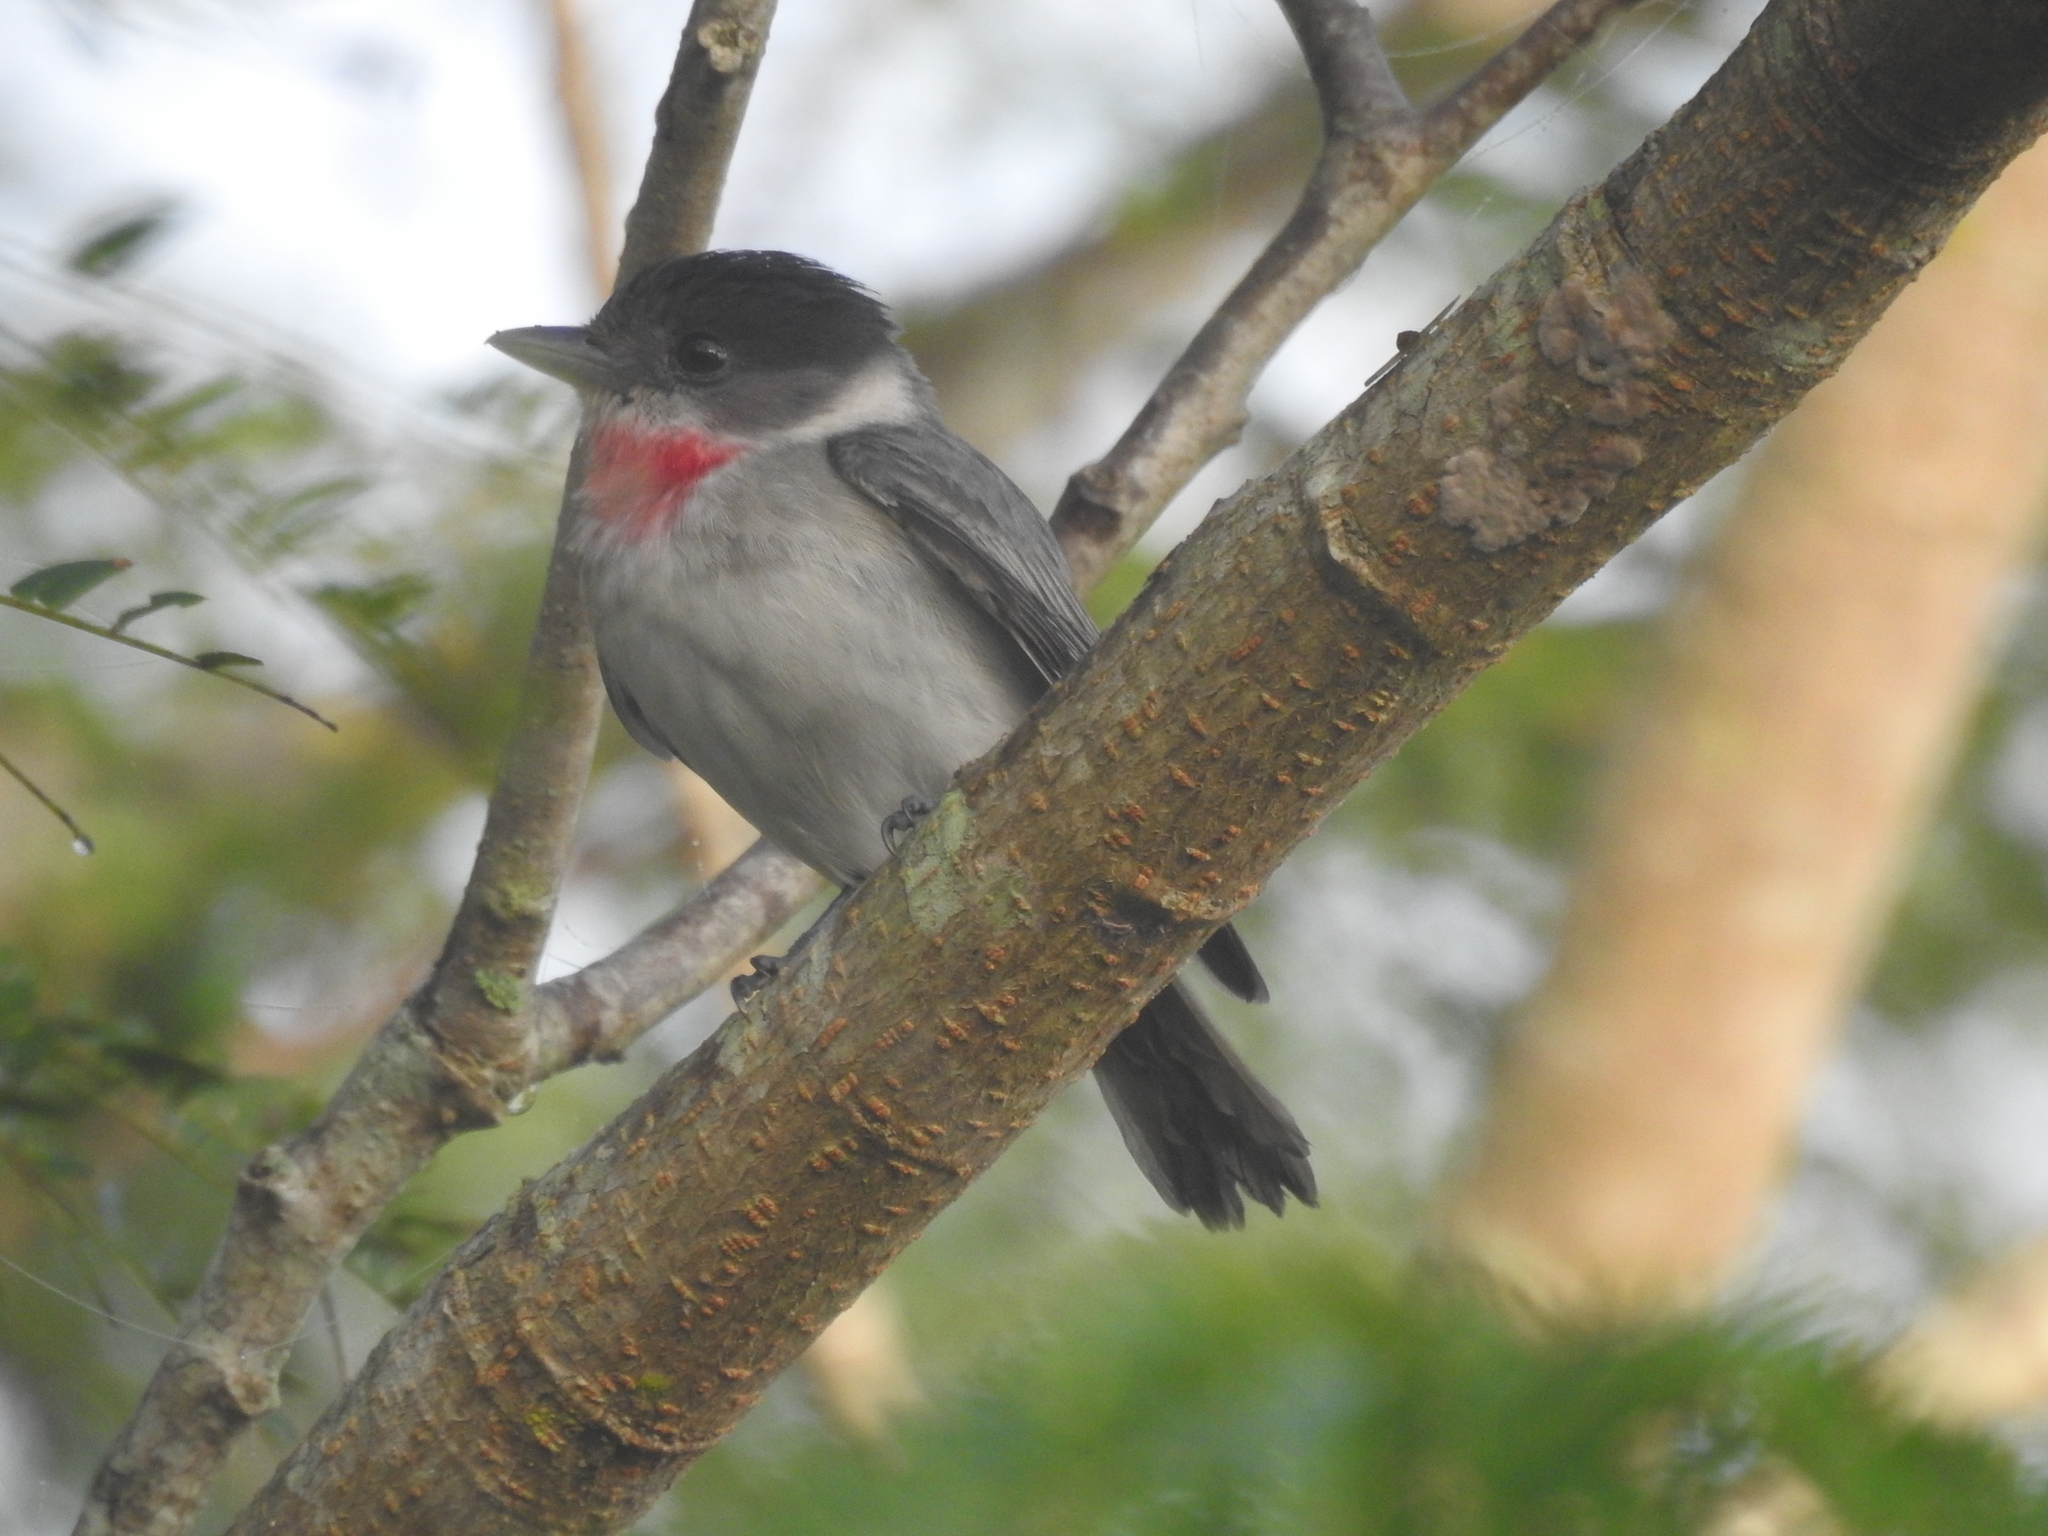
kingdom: Animalia
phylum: Chordata
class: Aves
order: Passeriformes
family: Cotingidae
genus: Pachyramphus
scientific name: Pachyramphus aglaiae
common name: Rose-throated becard
